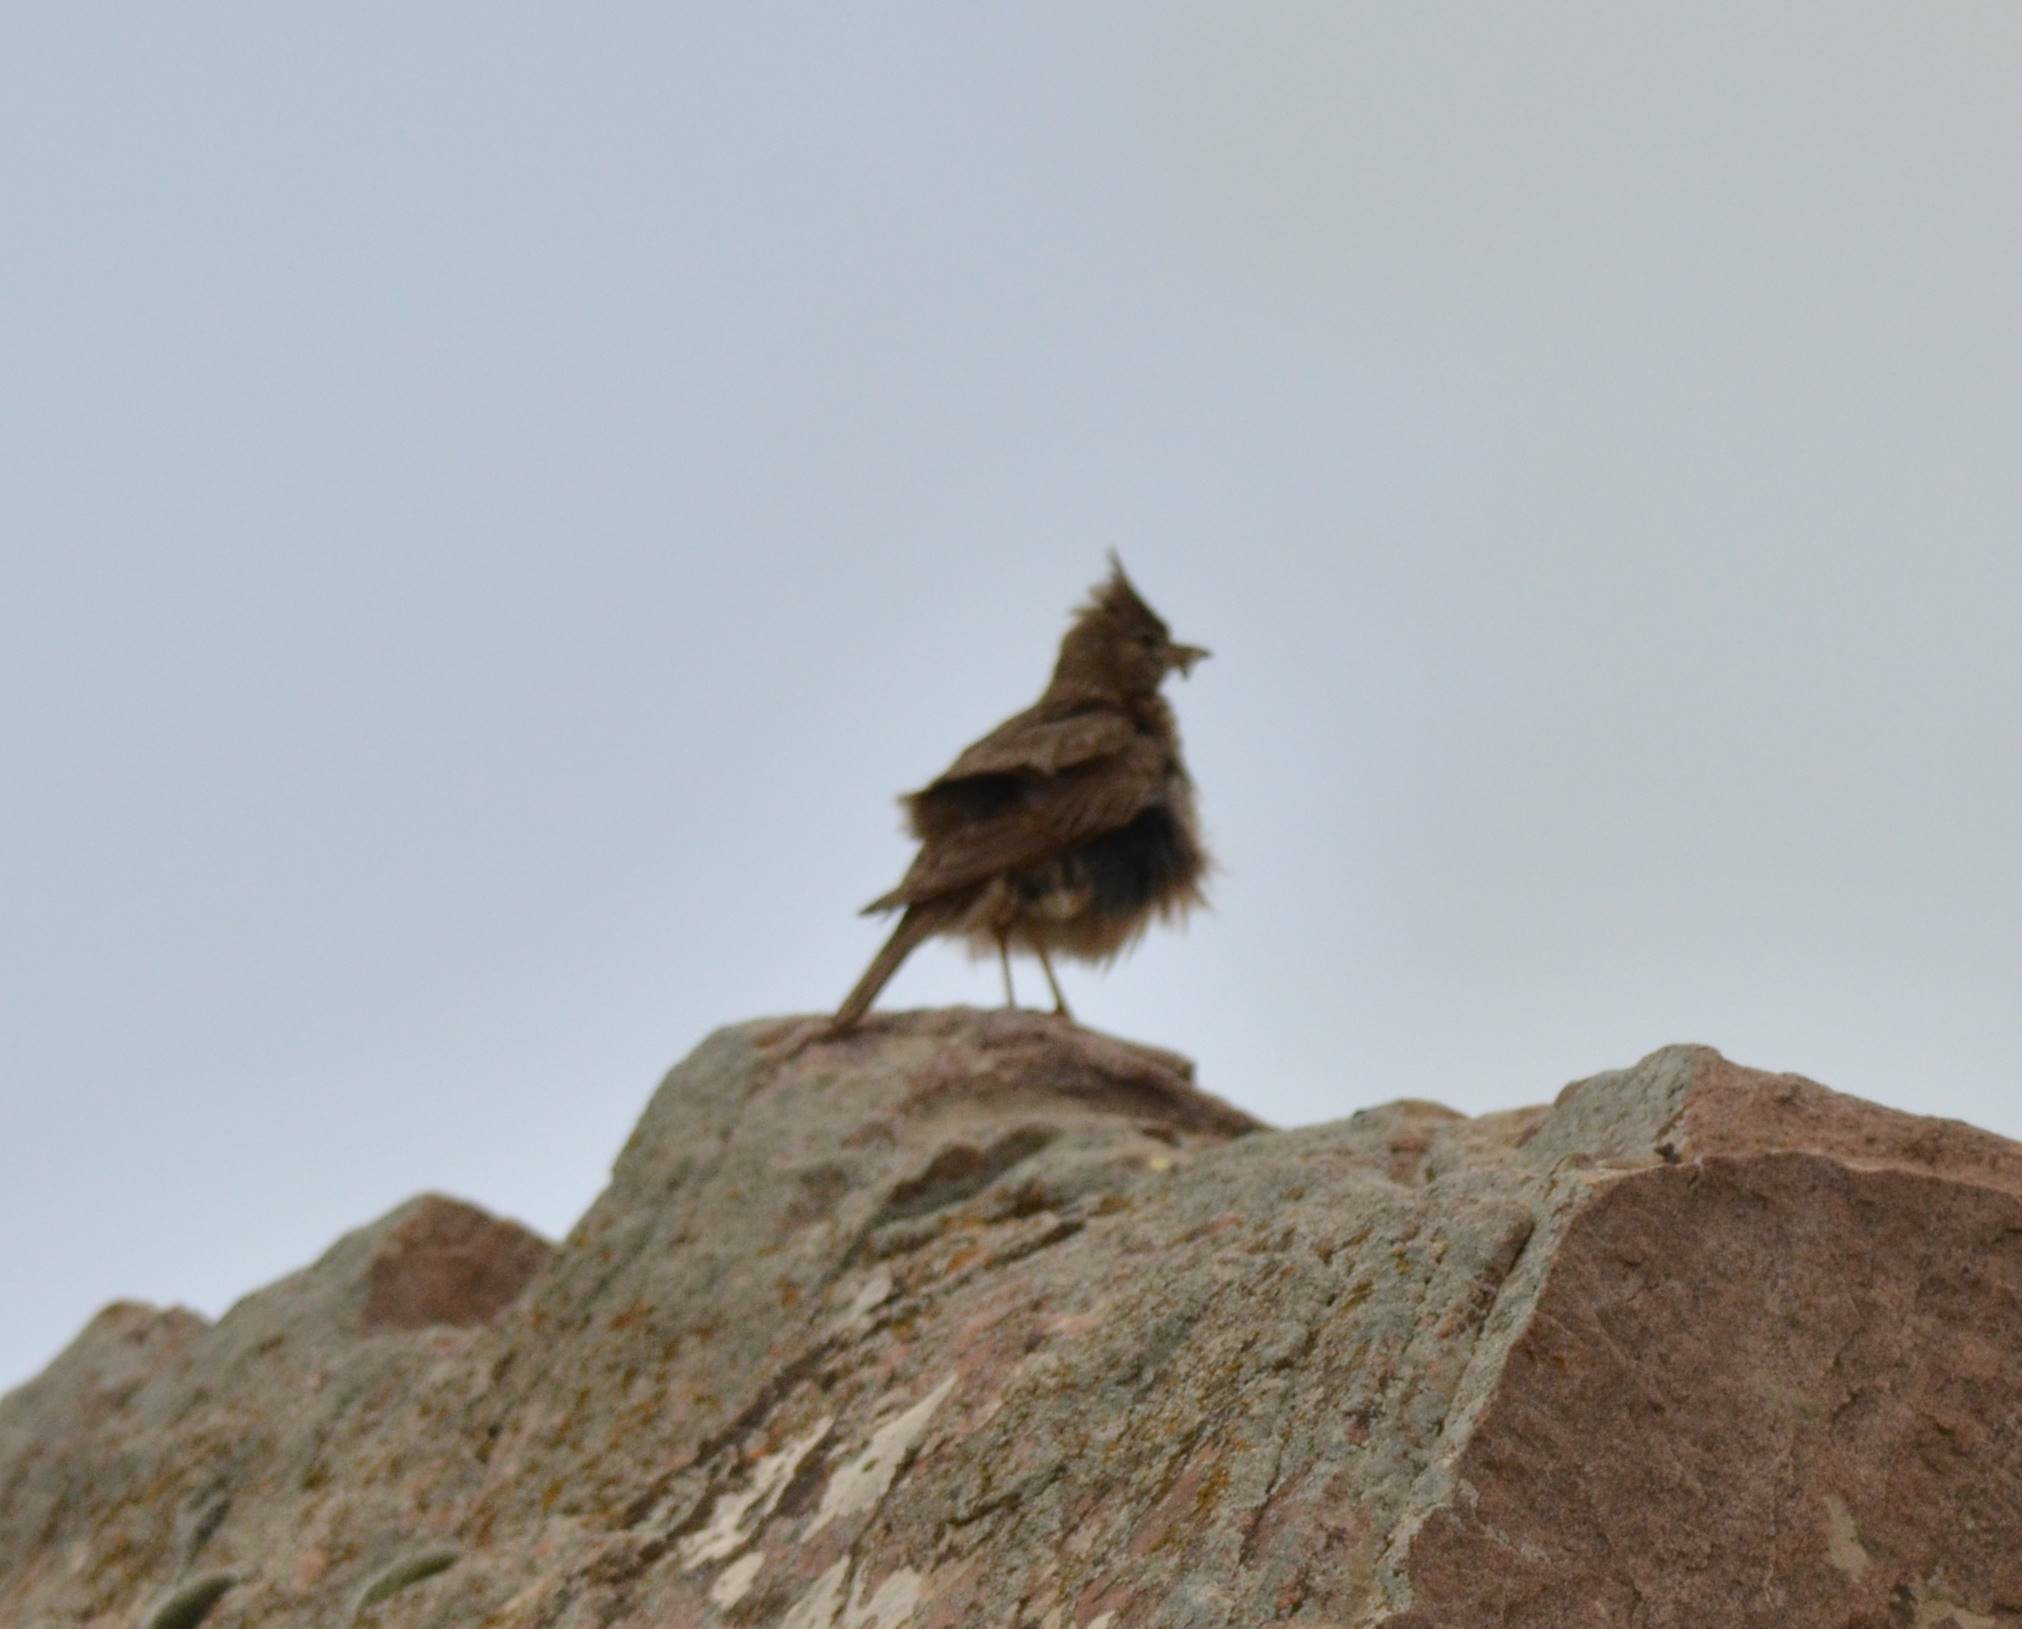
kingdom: Animalia
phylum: Chordata
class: Aves
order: Passeriformes
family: Alaudidae
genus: Galerida
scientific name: Galerida cristata
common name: Crested lark
